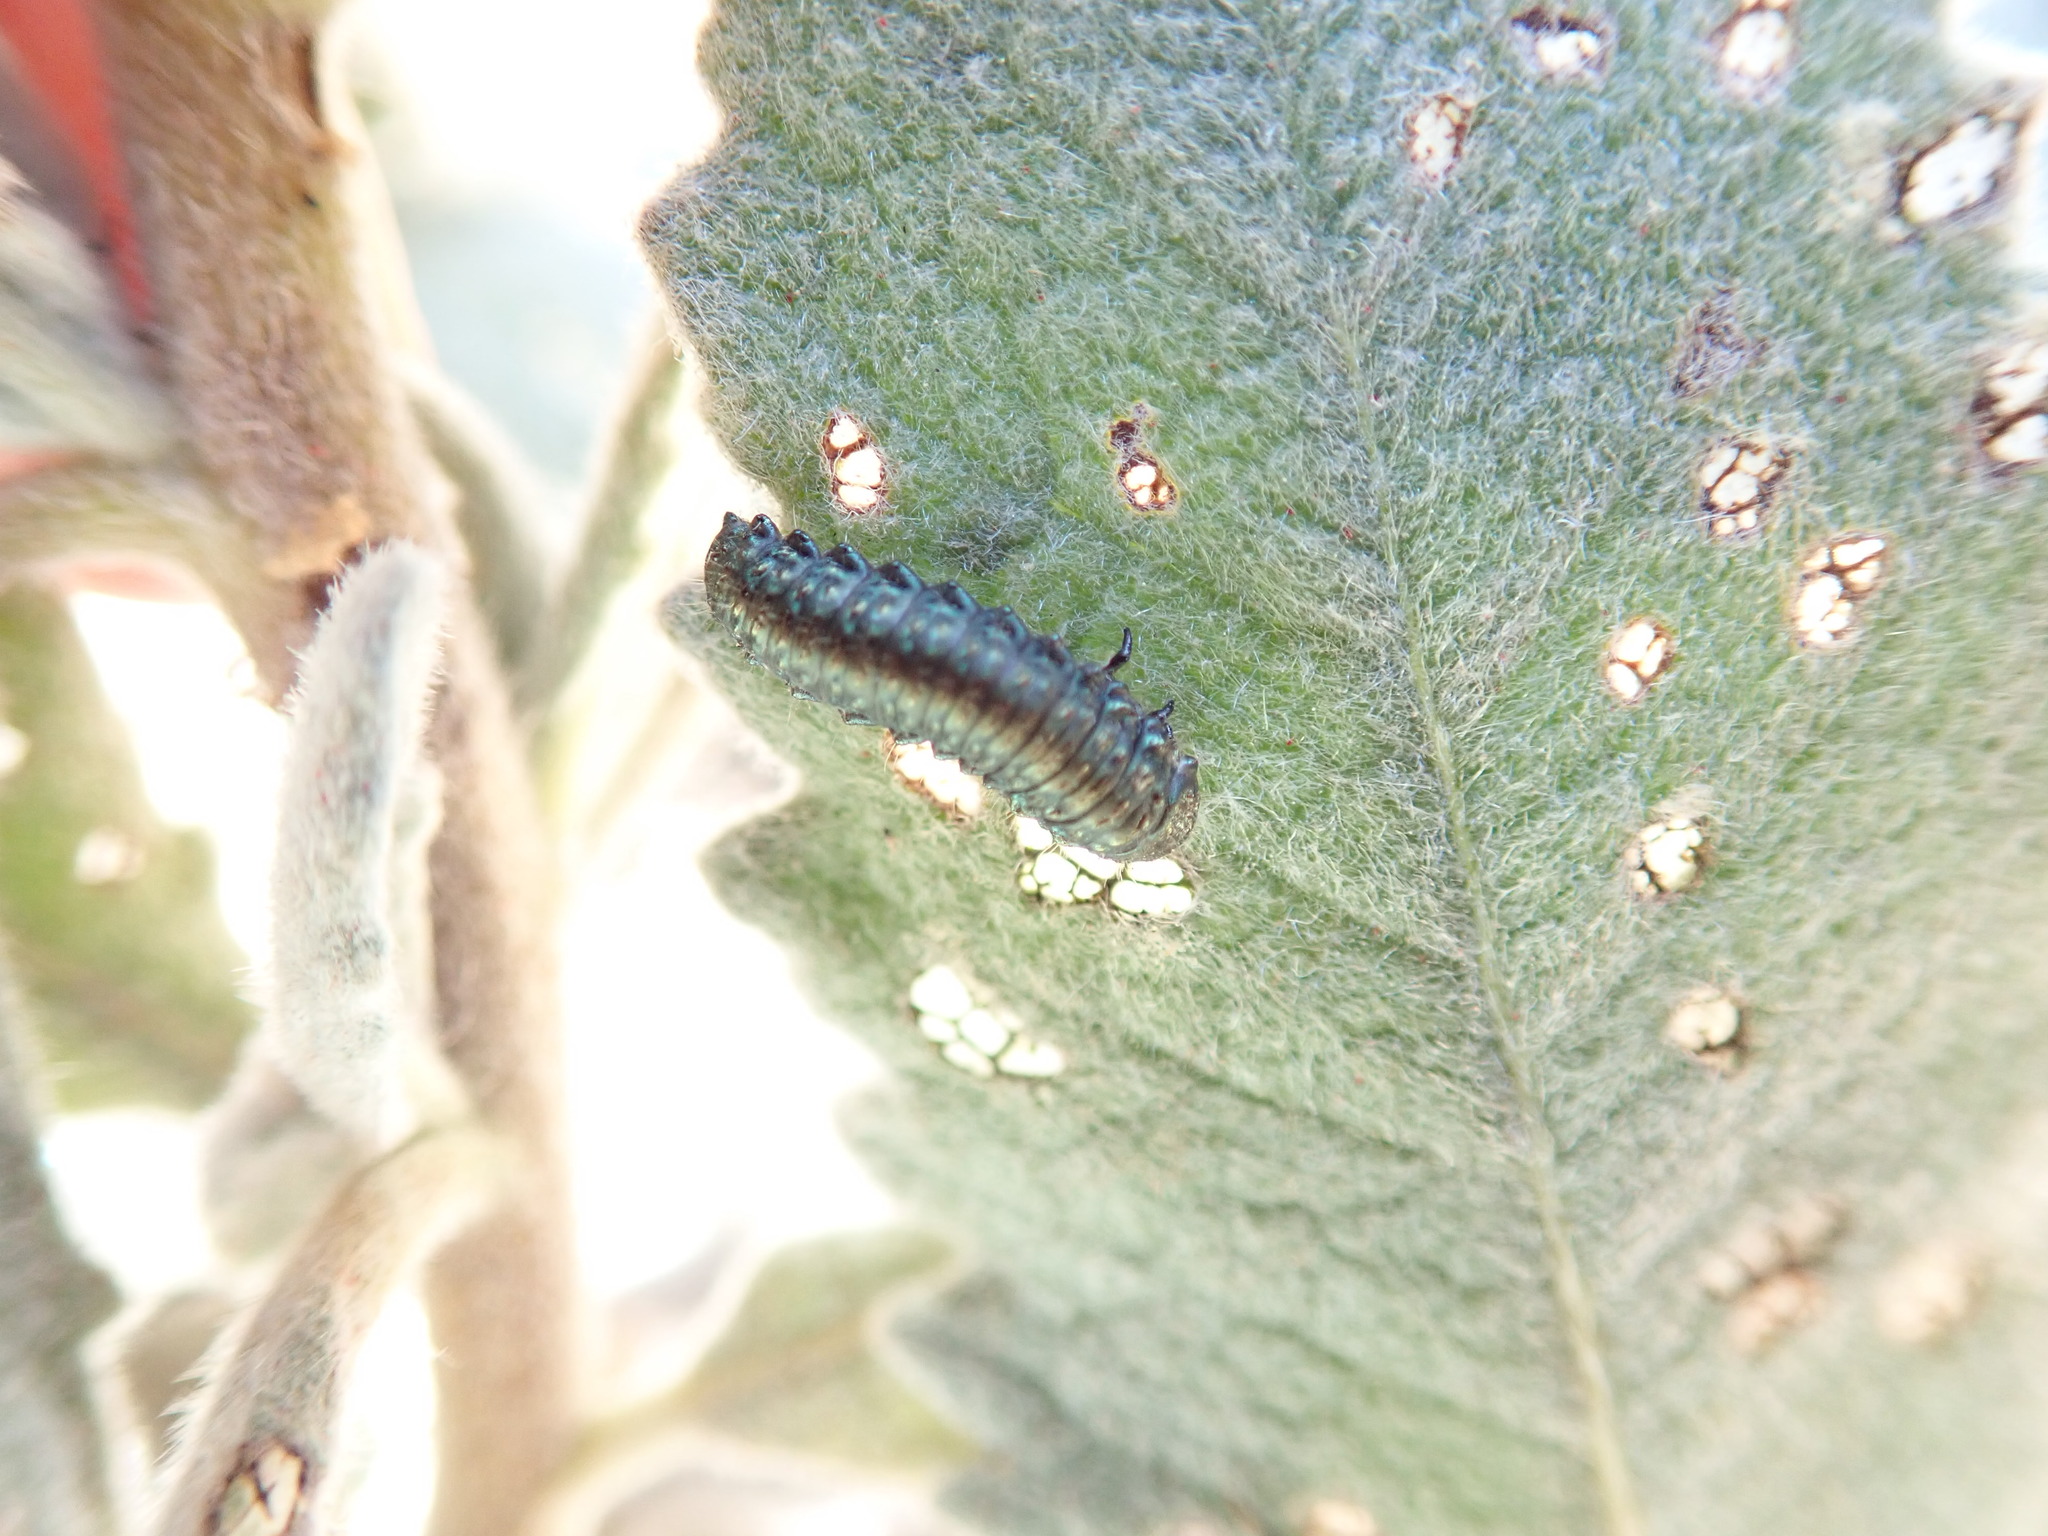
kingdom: Animalia
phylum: Arthropoda
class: Insecta
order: Coleoptera
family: Chrysomelidae
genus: Trirhabda
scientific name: Trirhabda eriodictyonis
